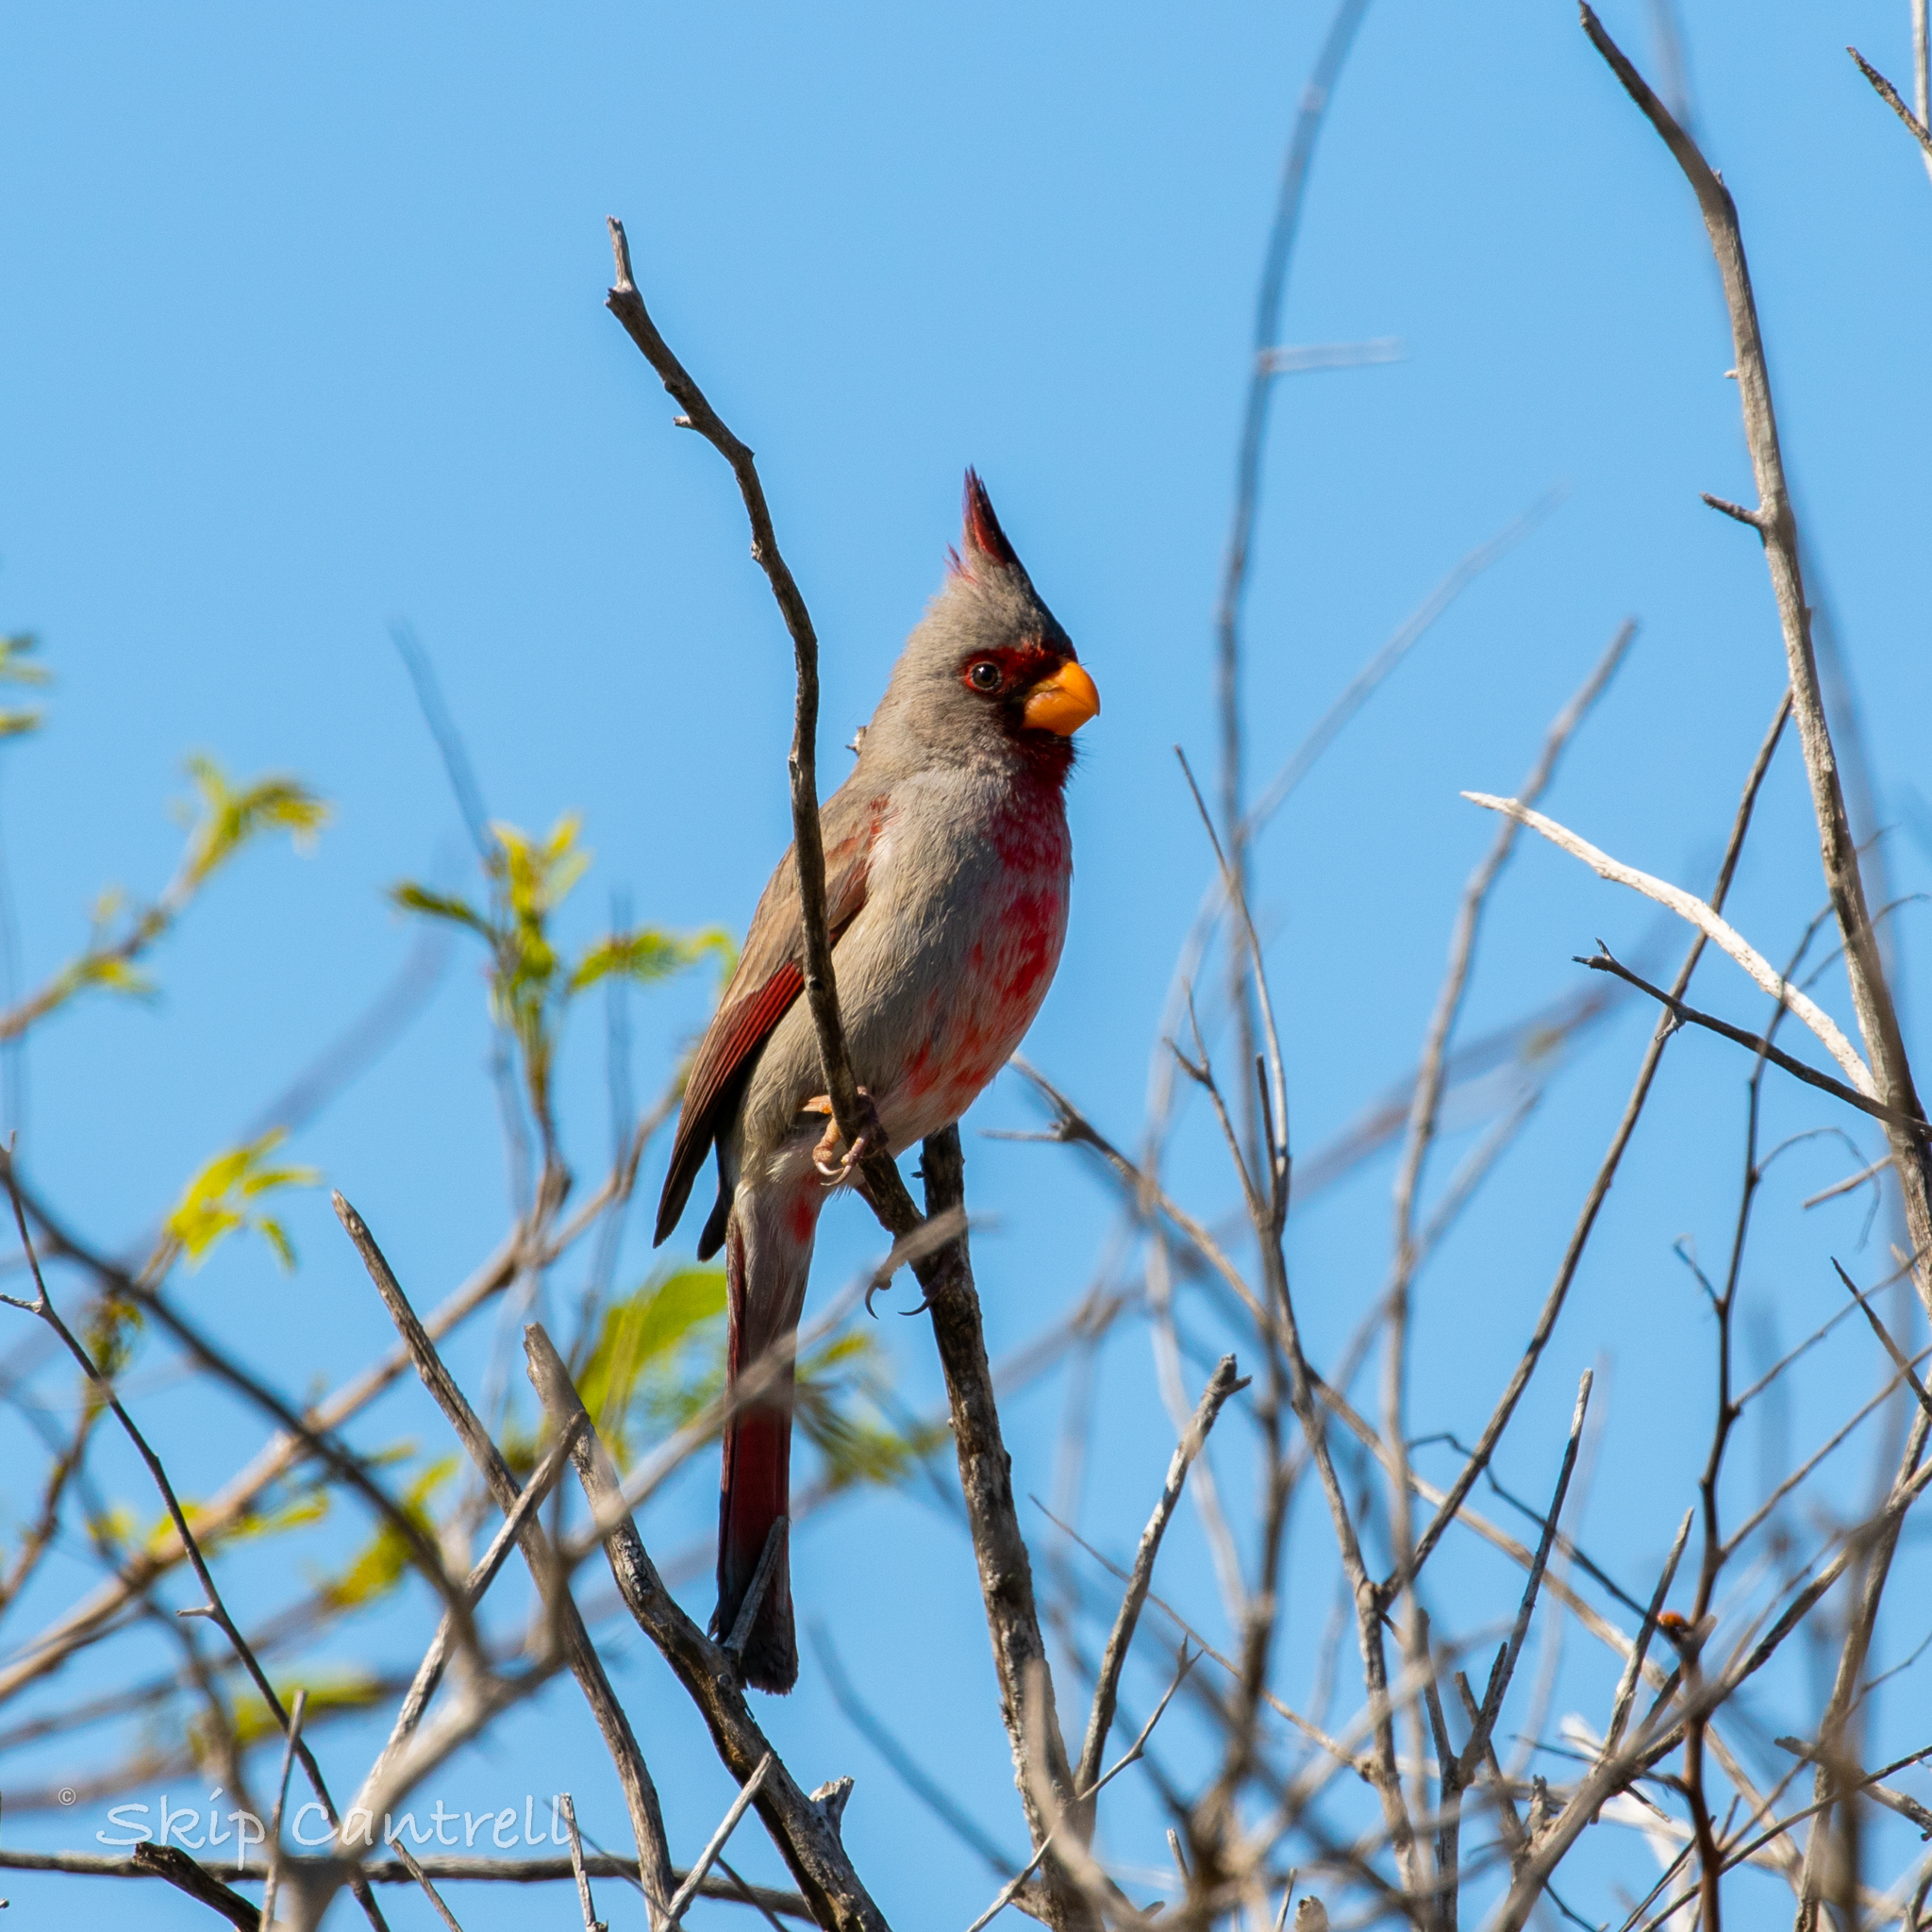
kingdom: Animalia
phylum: Chordata
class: Aves
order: Passeriformes
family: Cardinalidae
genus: Cardinalis
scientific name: Cardinalis sinuatus
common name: Pyrrhuloxia
